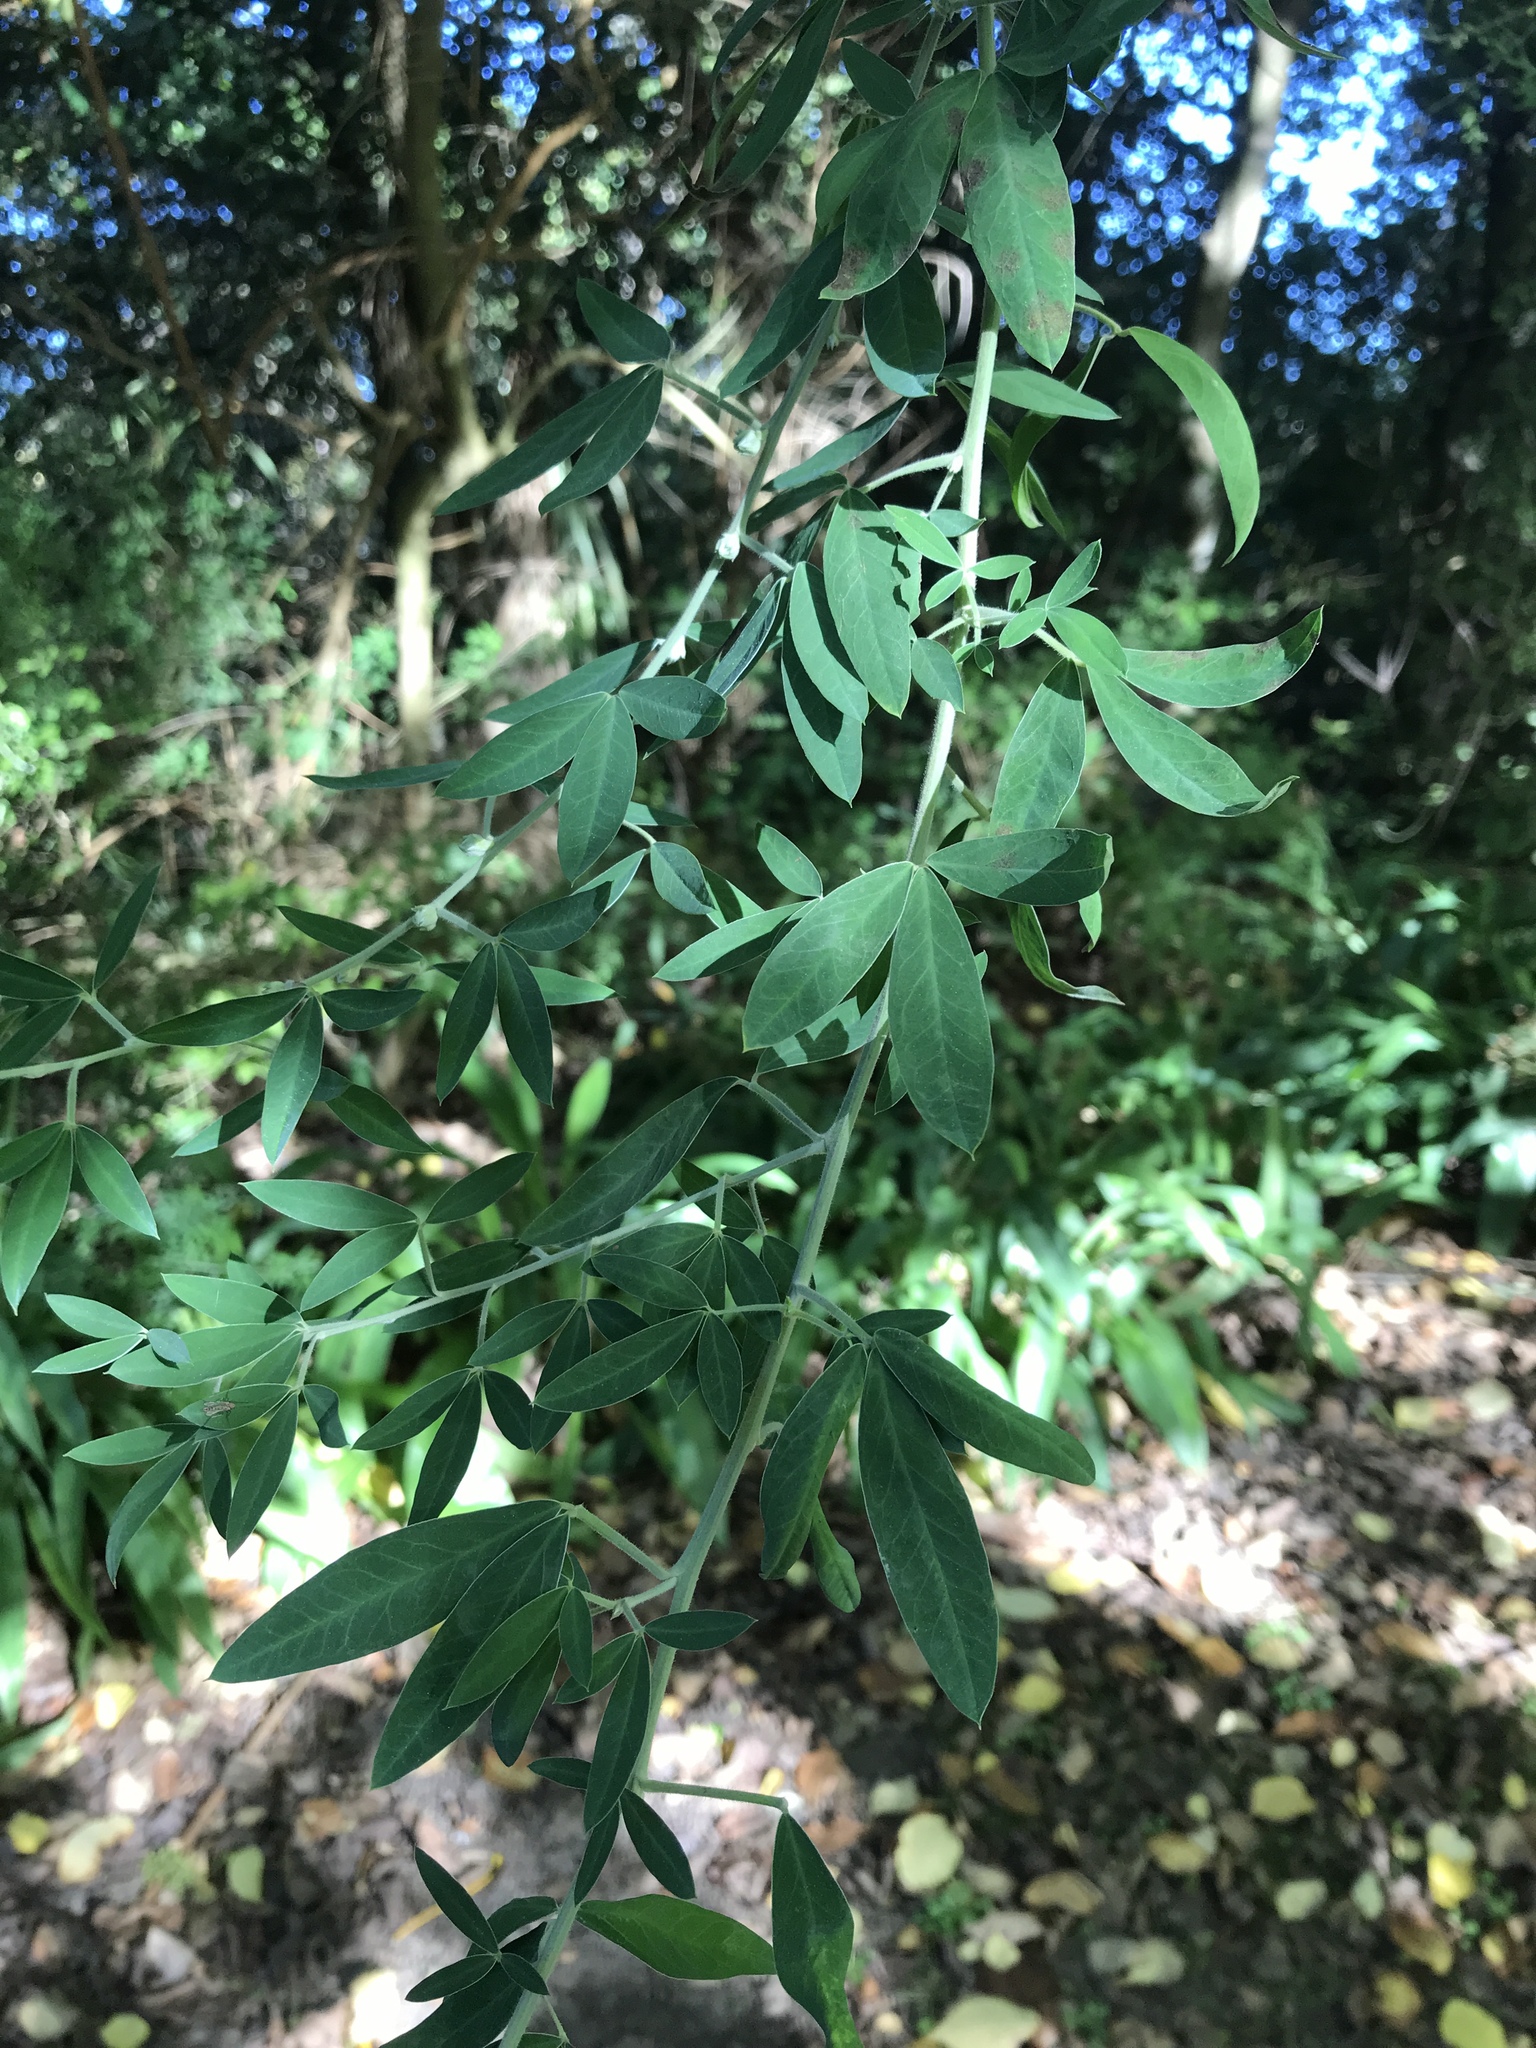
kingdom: Plantae
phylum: Tracheophyta
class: Magnoliopsida
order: Fabales
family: Fabaceae
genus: Chamaecytisus
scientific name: Chamaecytisus prolifer
